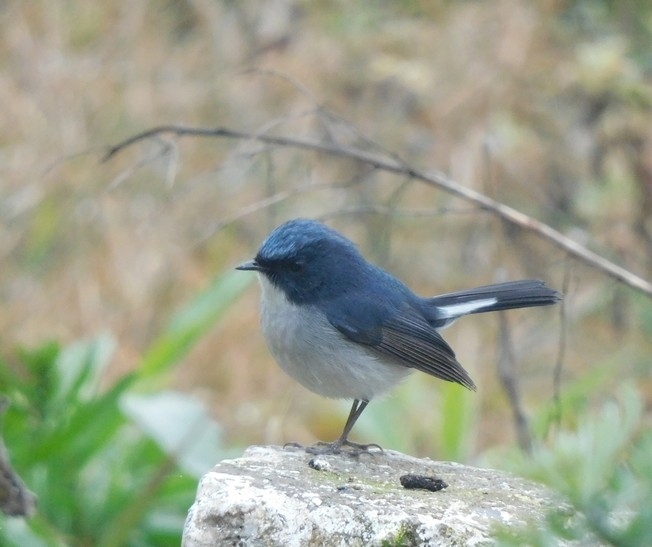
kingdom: Animalia
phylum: Chordata
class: Aves
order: Passeriformes
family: Muscicapidae
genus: Ficedula
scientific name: Ficedula tricolor
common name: Slaty-blue flycatcher
